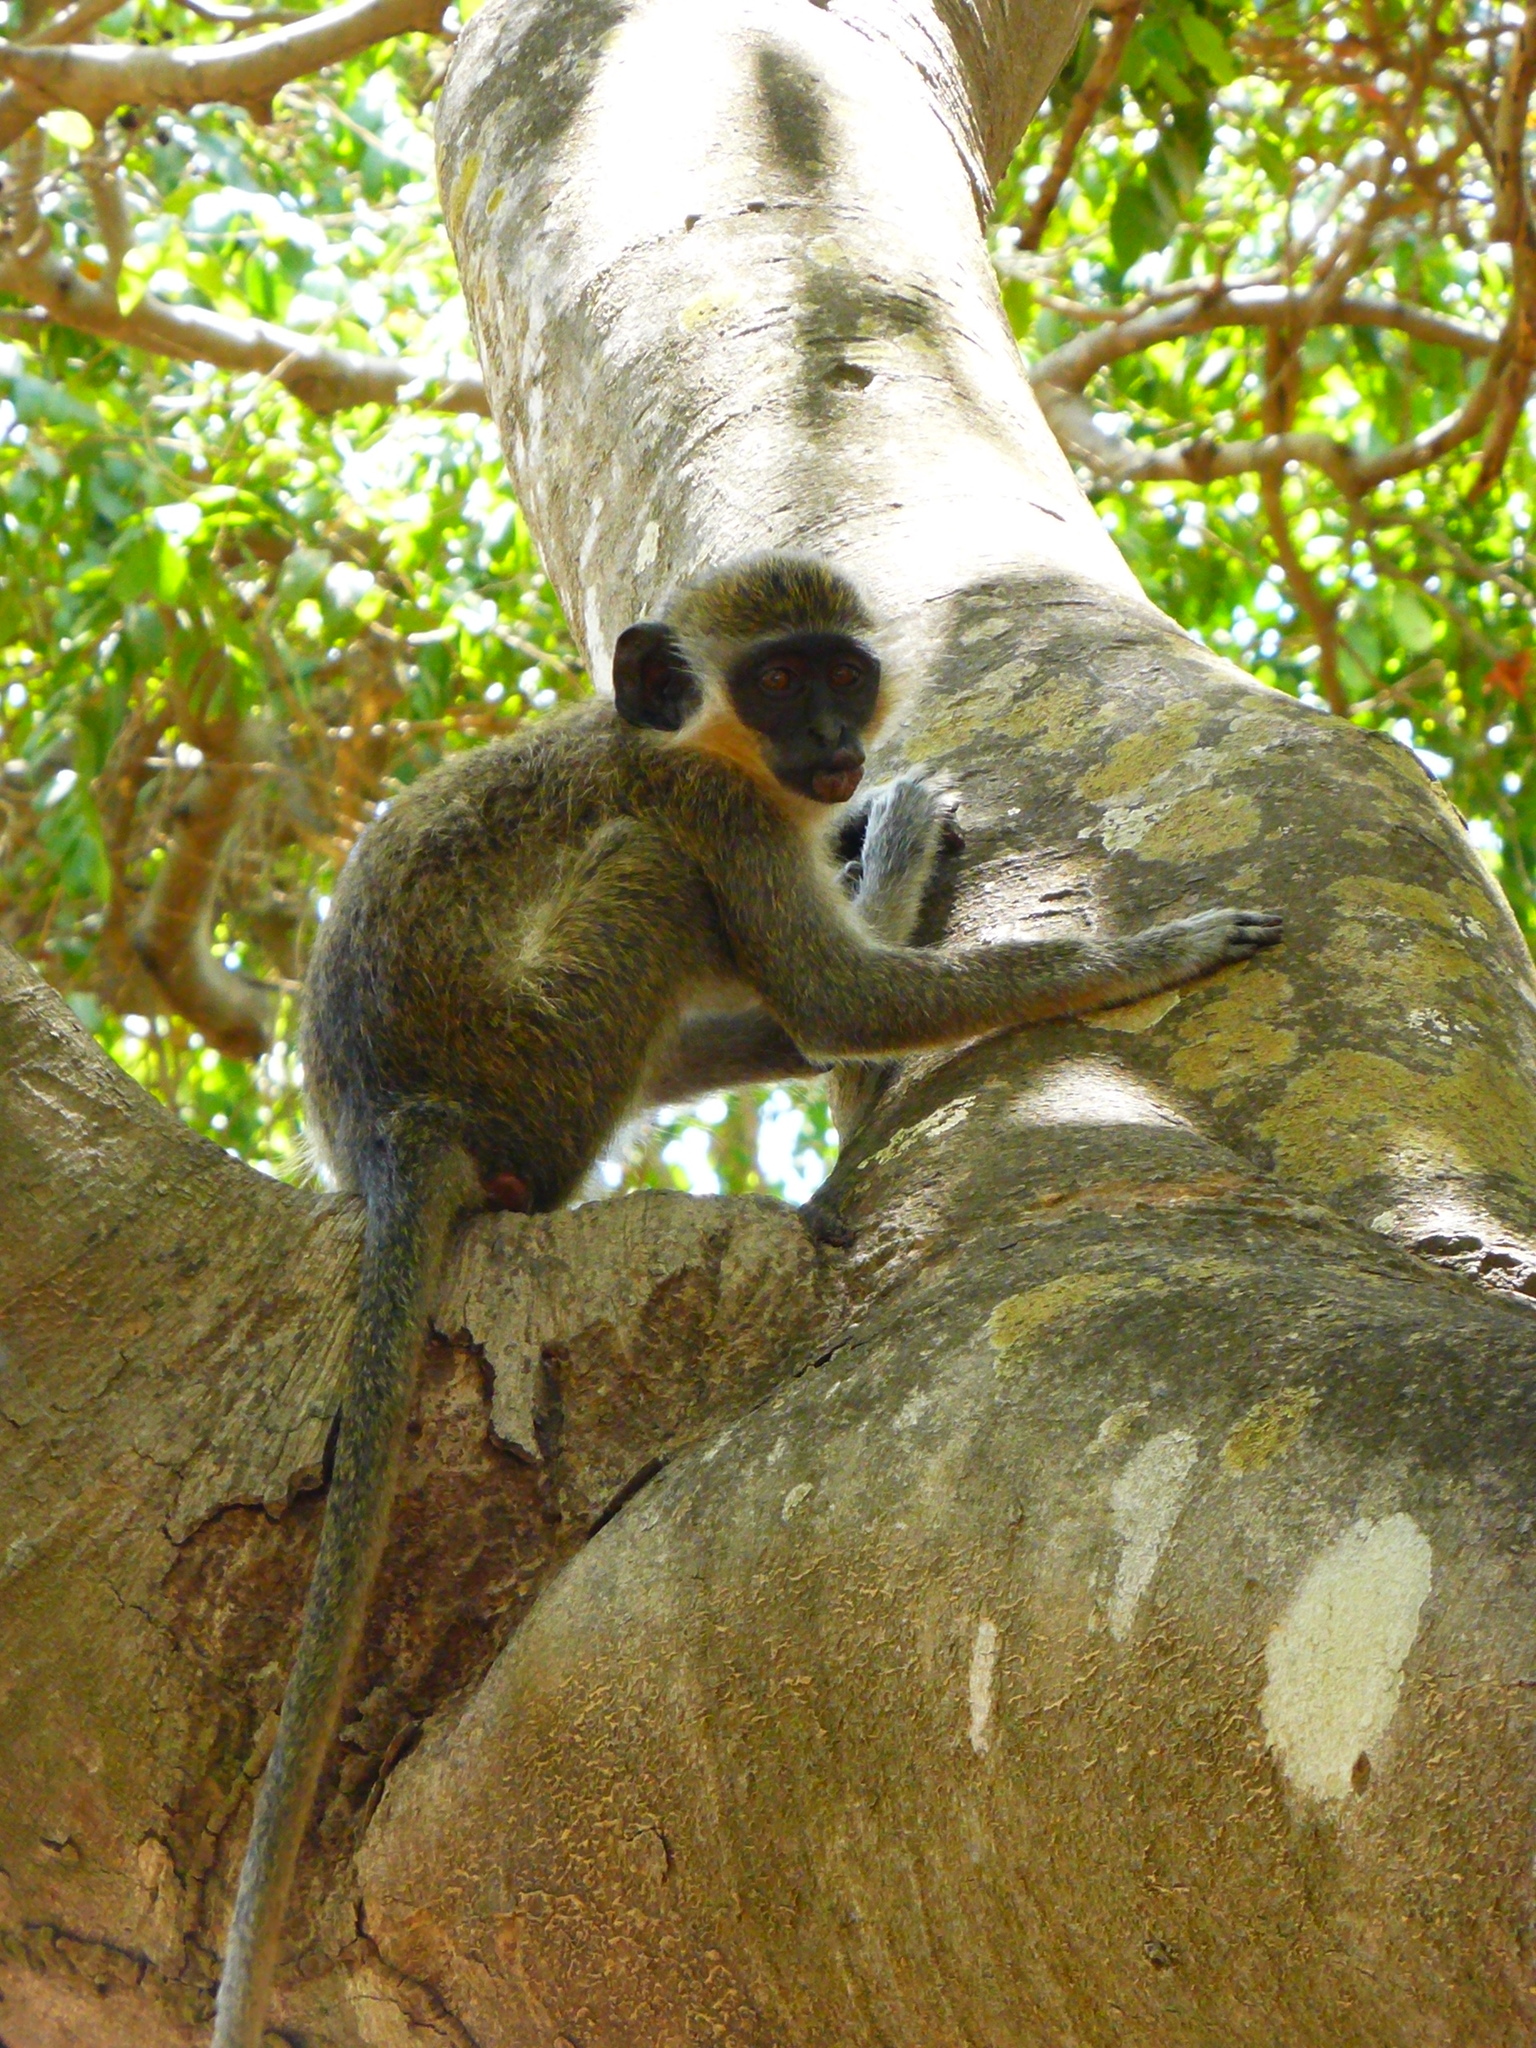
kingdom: Animalia
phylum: Chordata
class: Mammalia
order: Primates
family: Cercopithecidae
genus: Chlorocebus
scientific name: Chlorocebus sabaeus
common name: Green monkey
